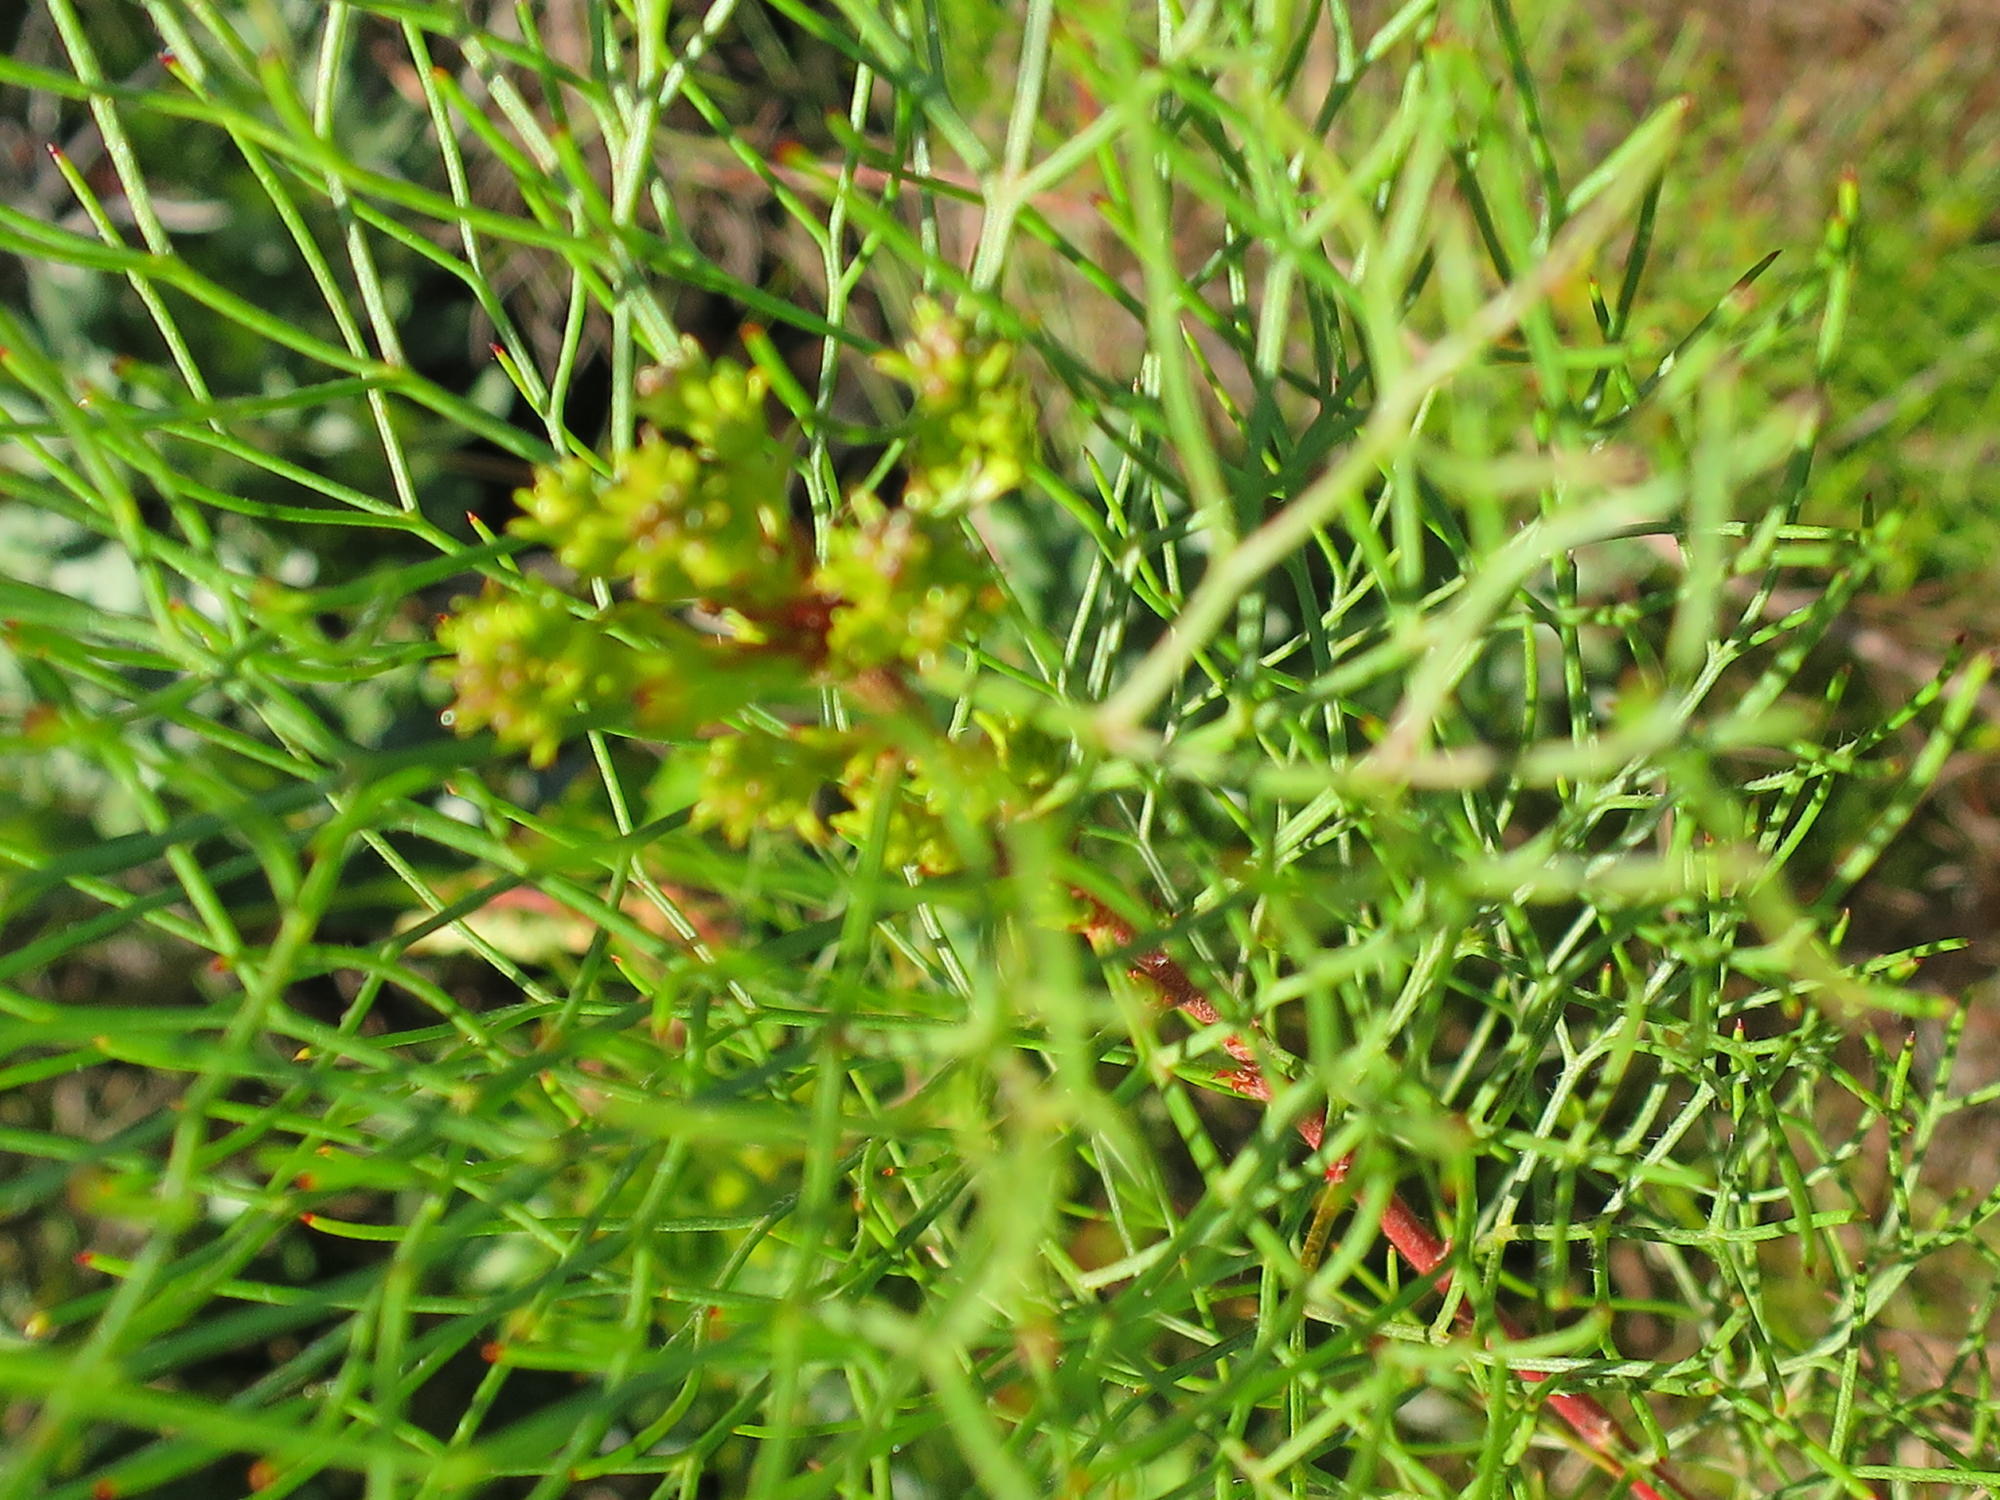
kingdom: Plantae
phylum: Tracheophyta
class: Magnoliopsida
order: Proteales
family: Proteaceae
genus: Serruria
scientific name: Serruria fasciflora
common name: Common pin spiderhead
